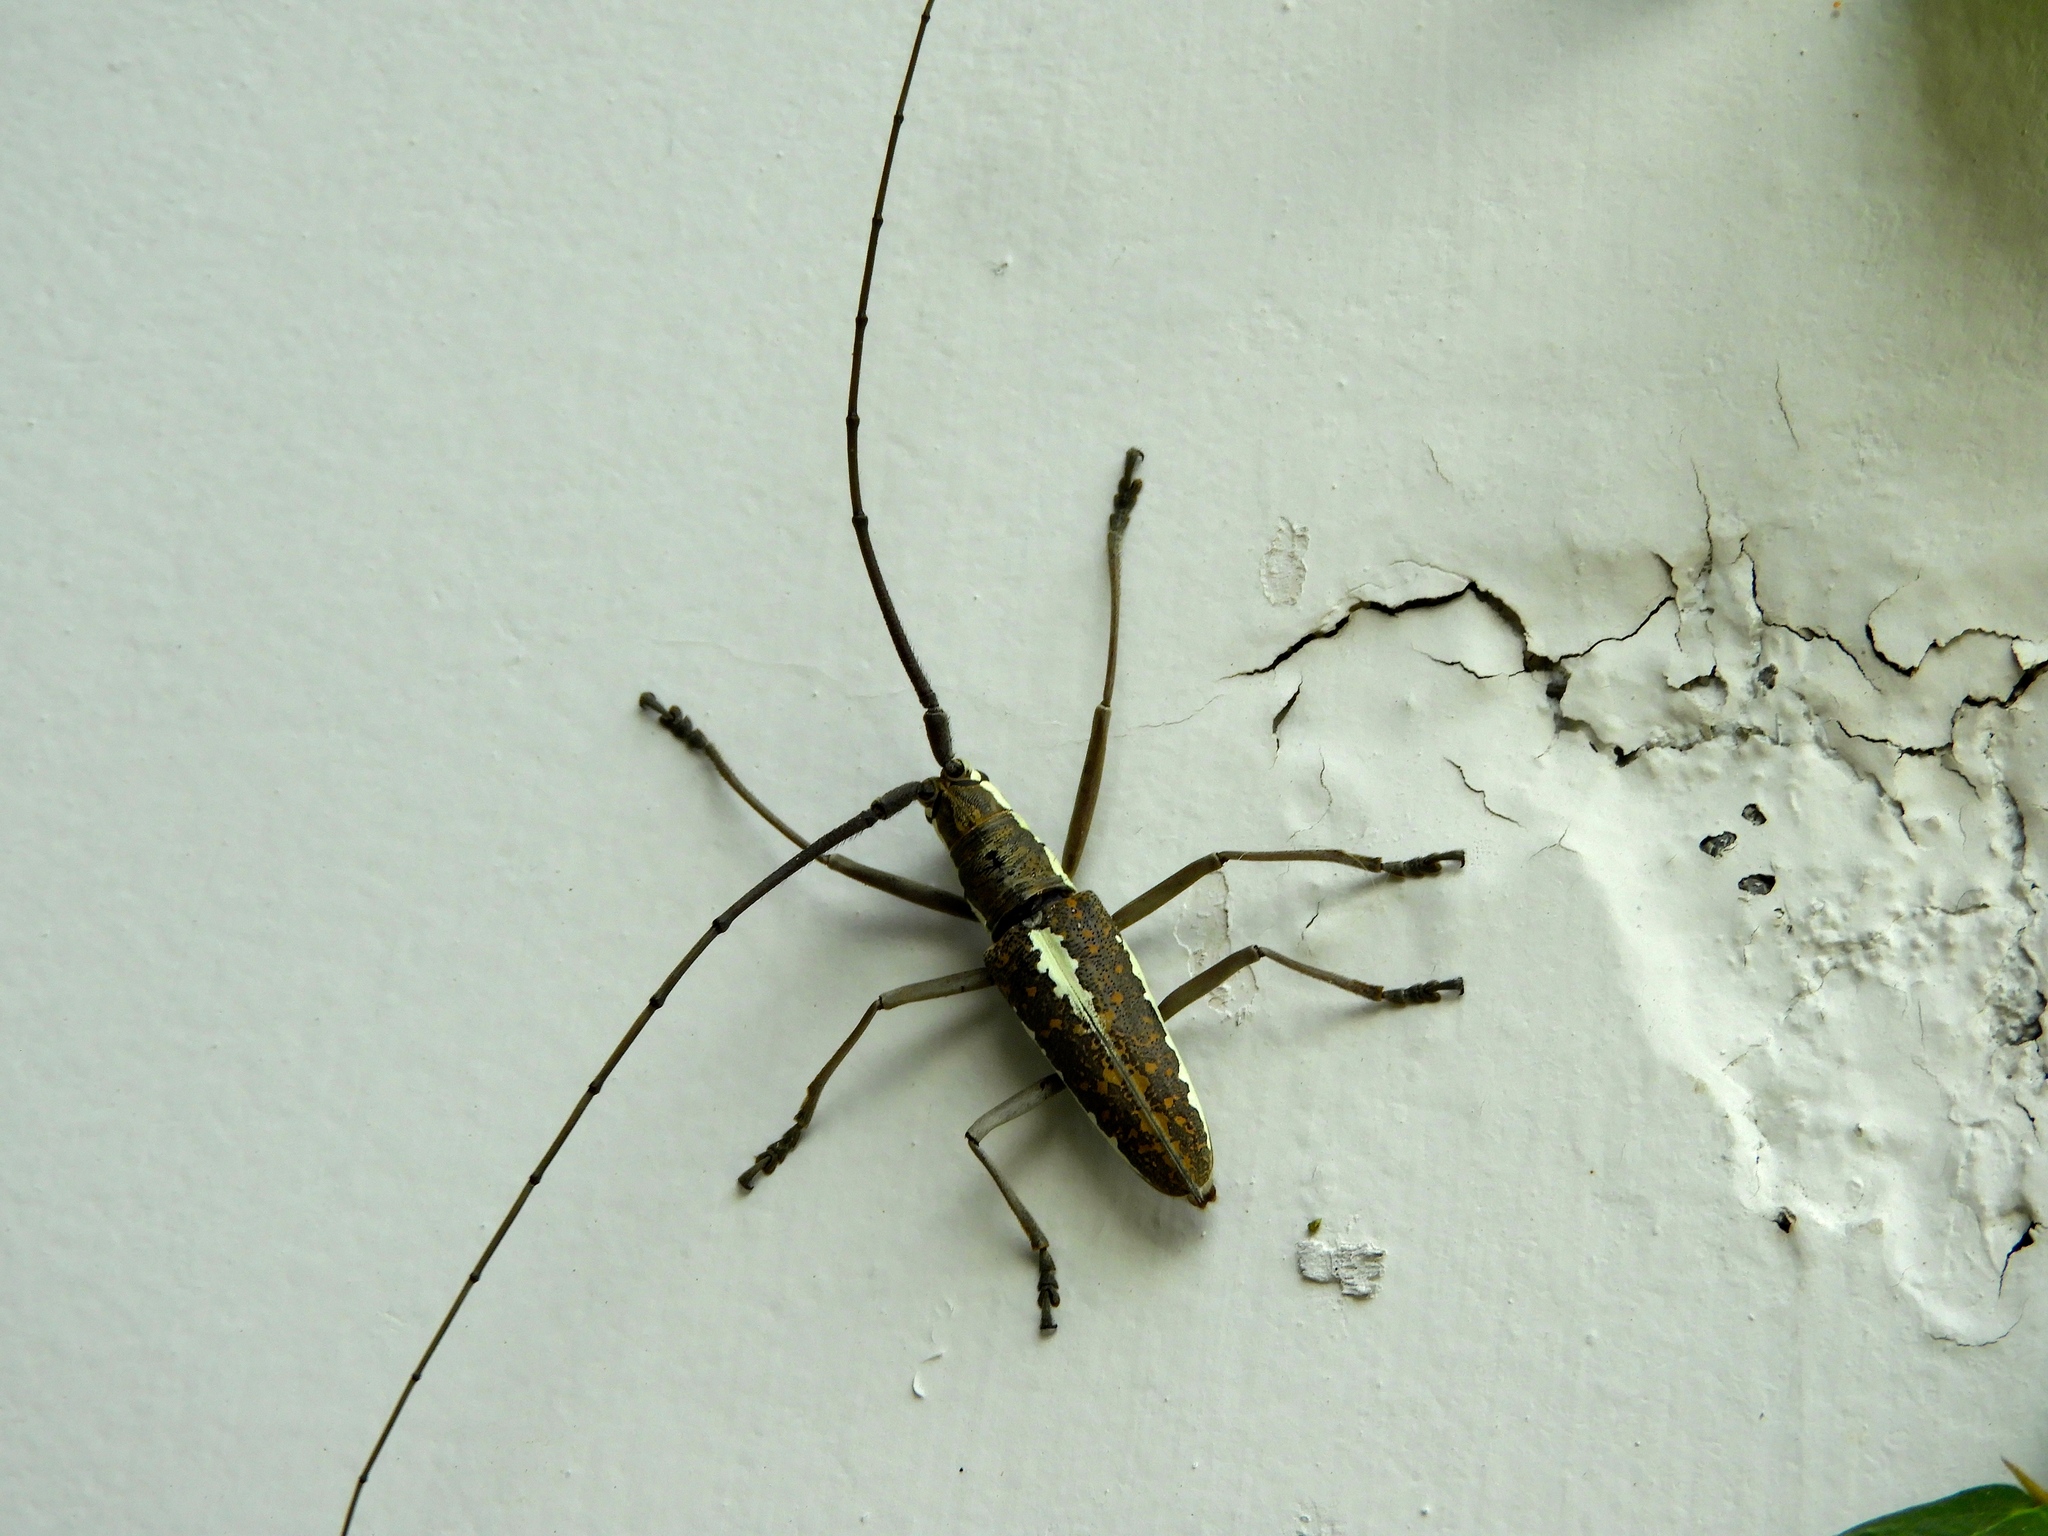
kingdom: Animalia
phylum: Arthropoda
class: Insecta
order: Coleoptera
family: Cerambycidae
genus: Neoptychodes
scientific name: Neoptychodes trilineatus
